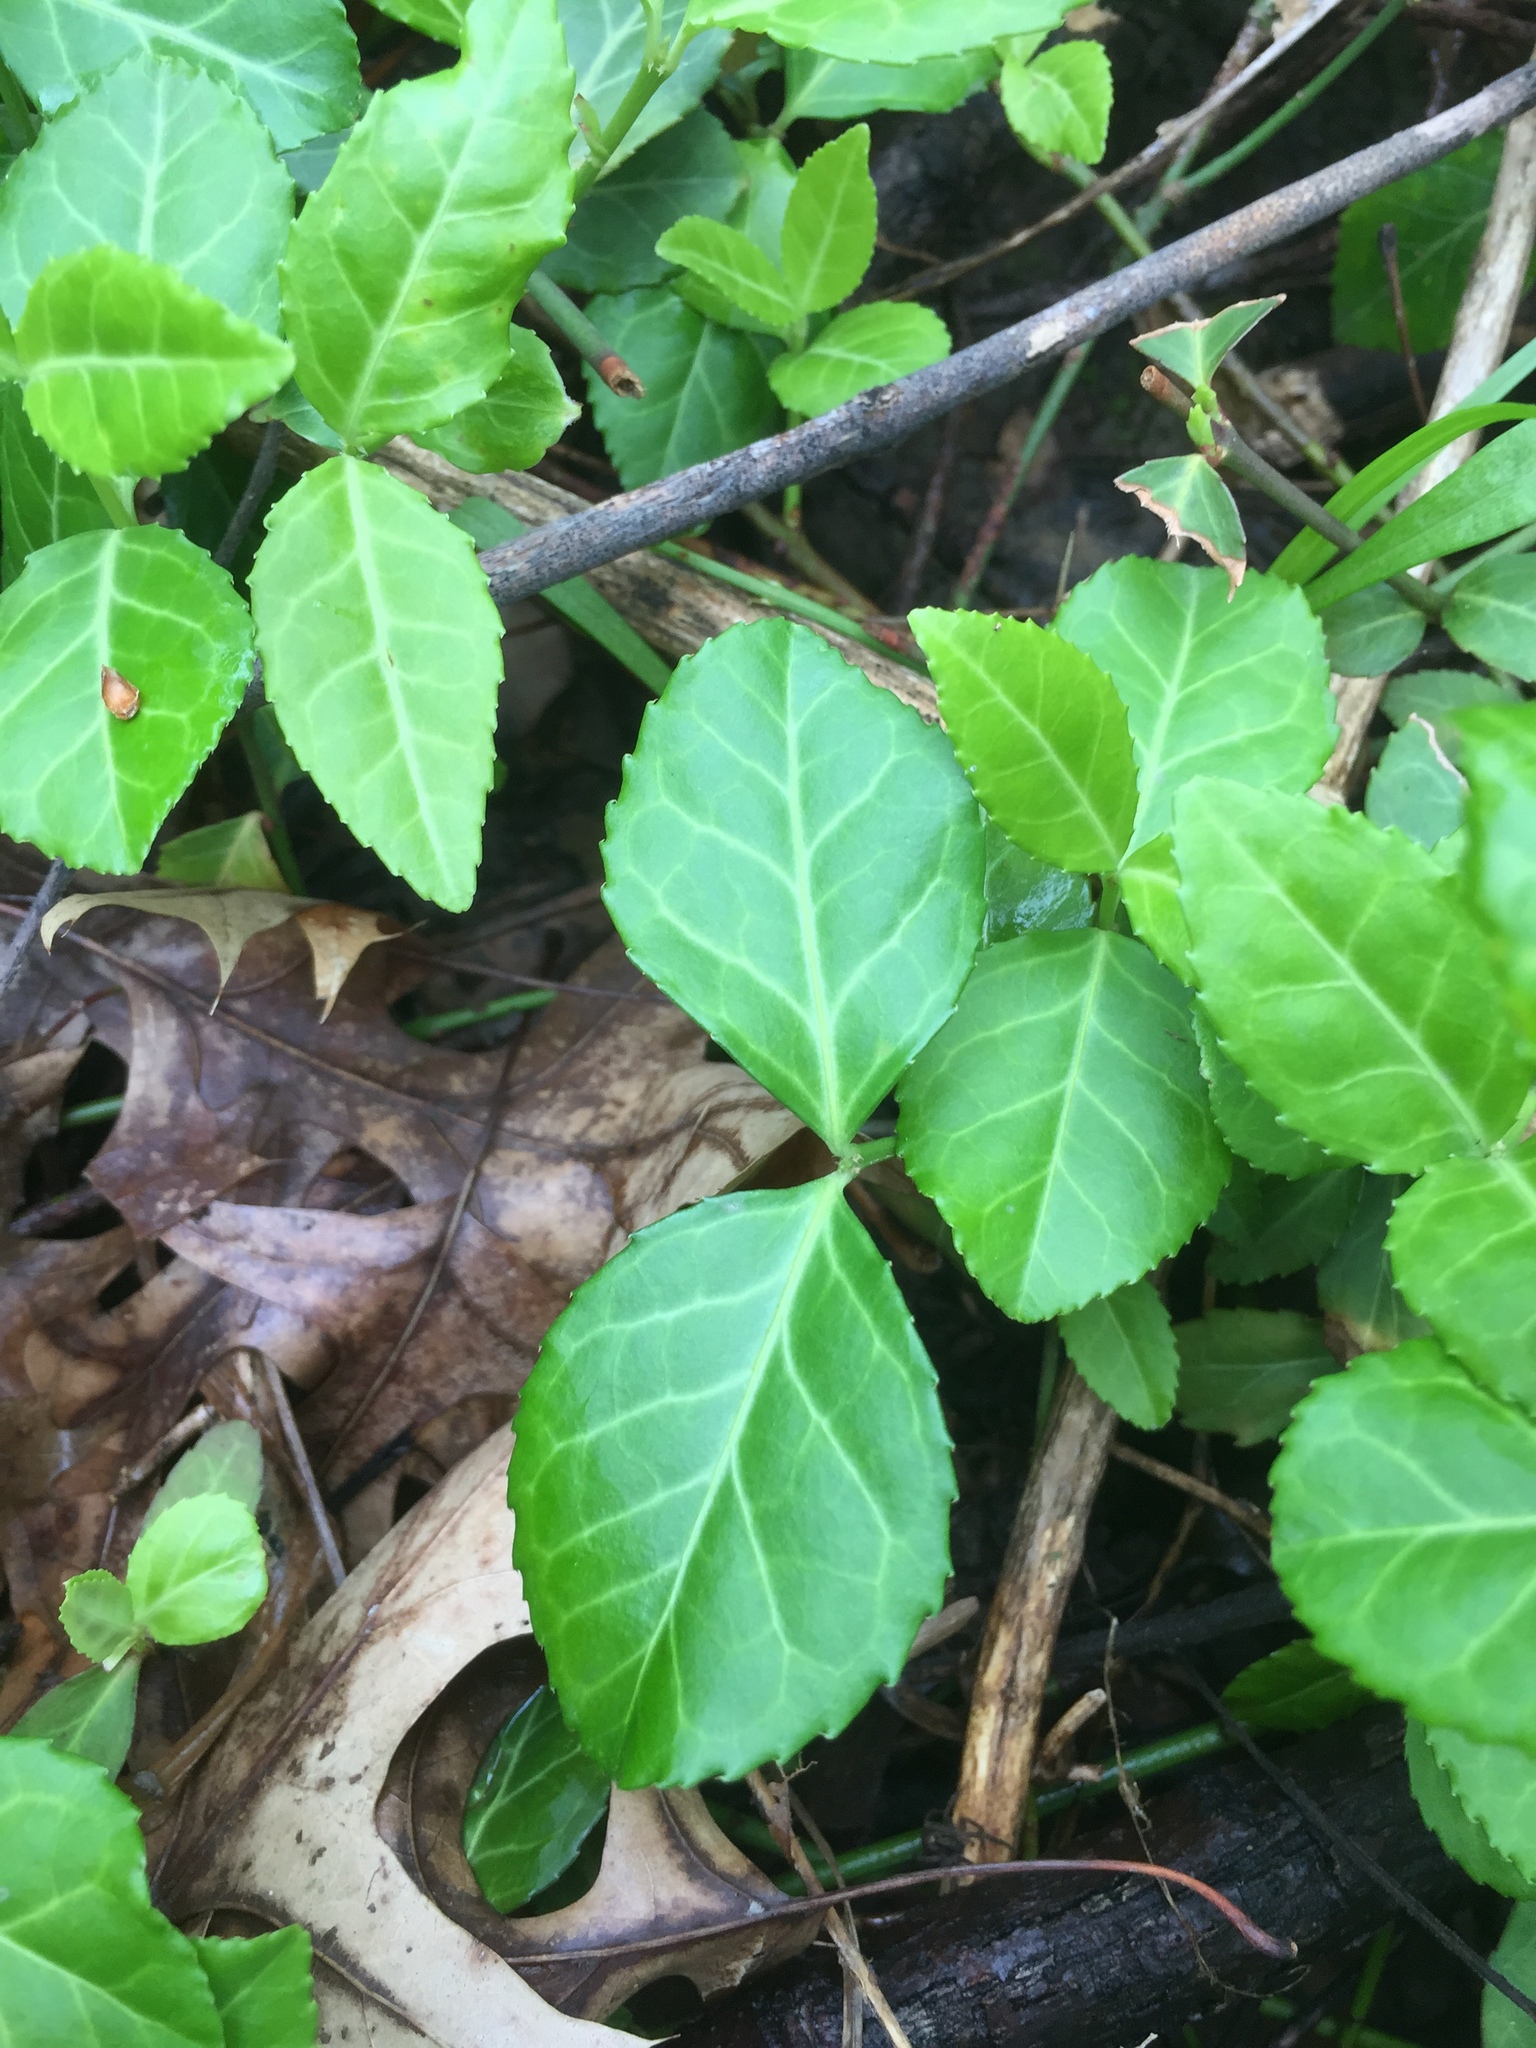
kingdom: Plantae
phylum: Tracheophyta
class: Magnoliopsida
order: Celastrales
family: Celastraceae
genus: Euonymus
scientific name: Euonymus fortunei
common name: Climbing euonymus
